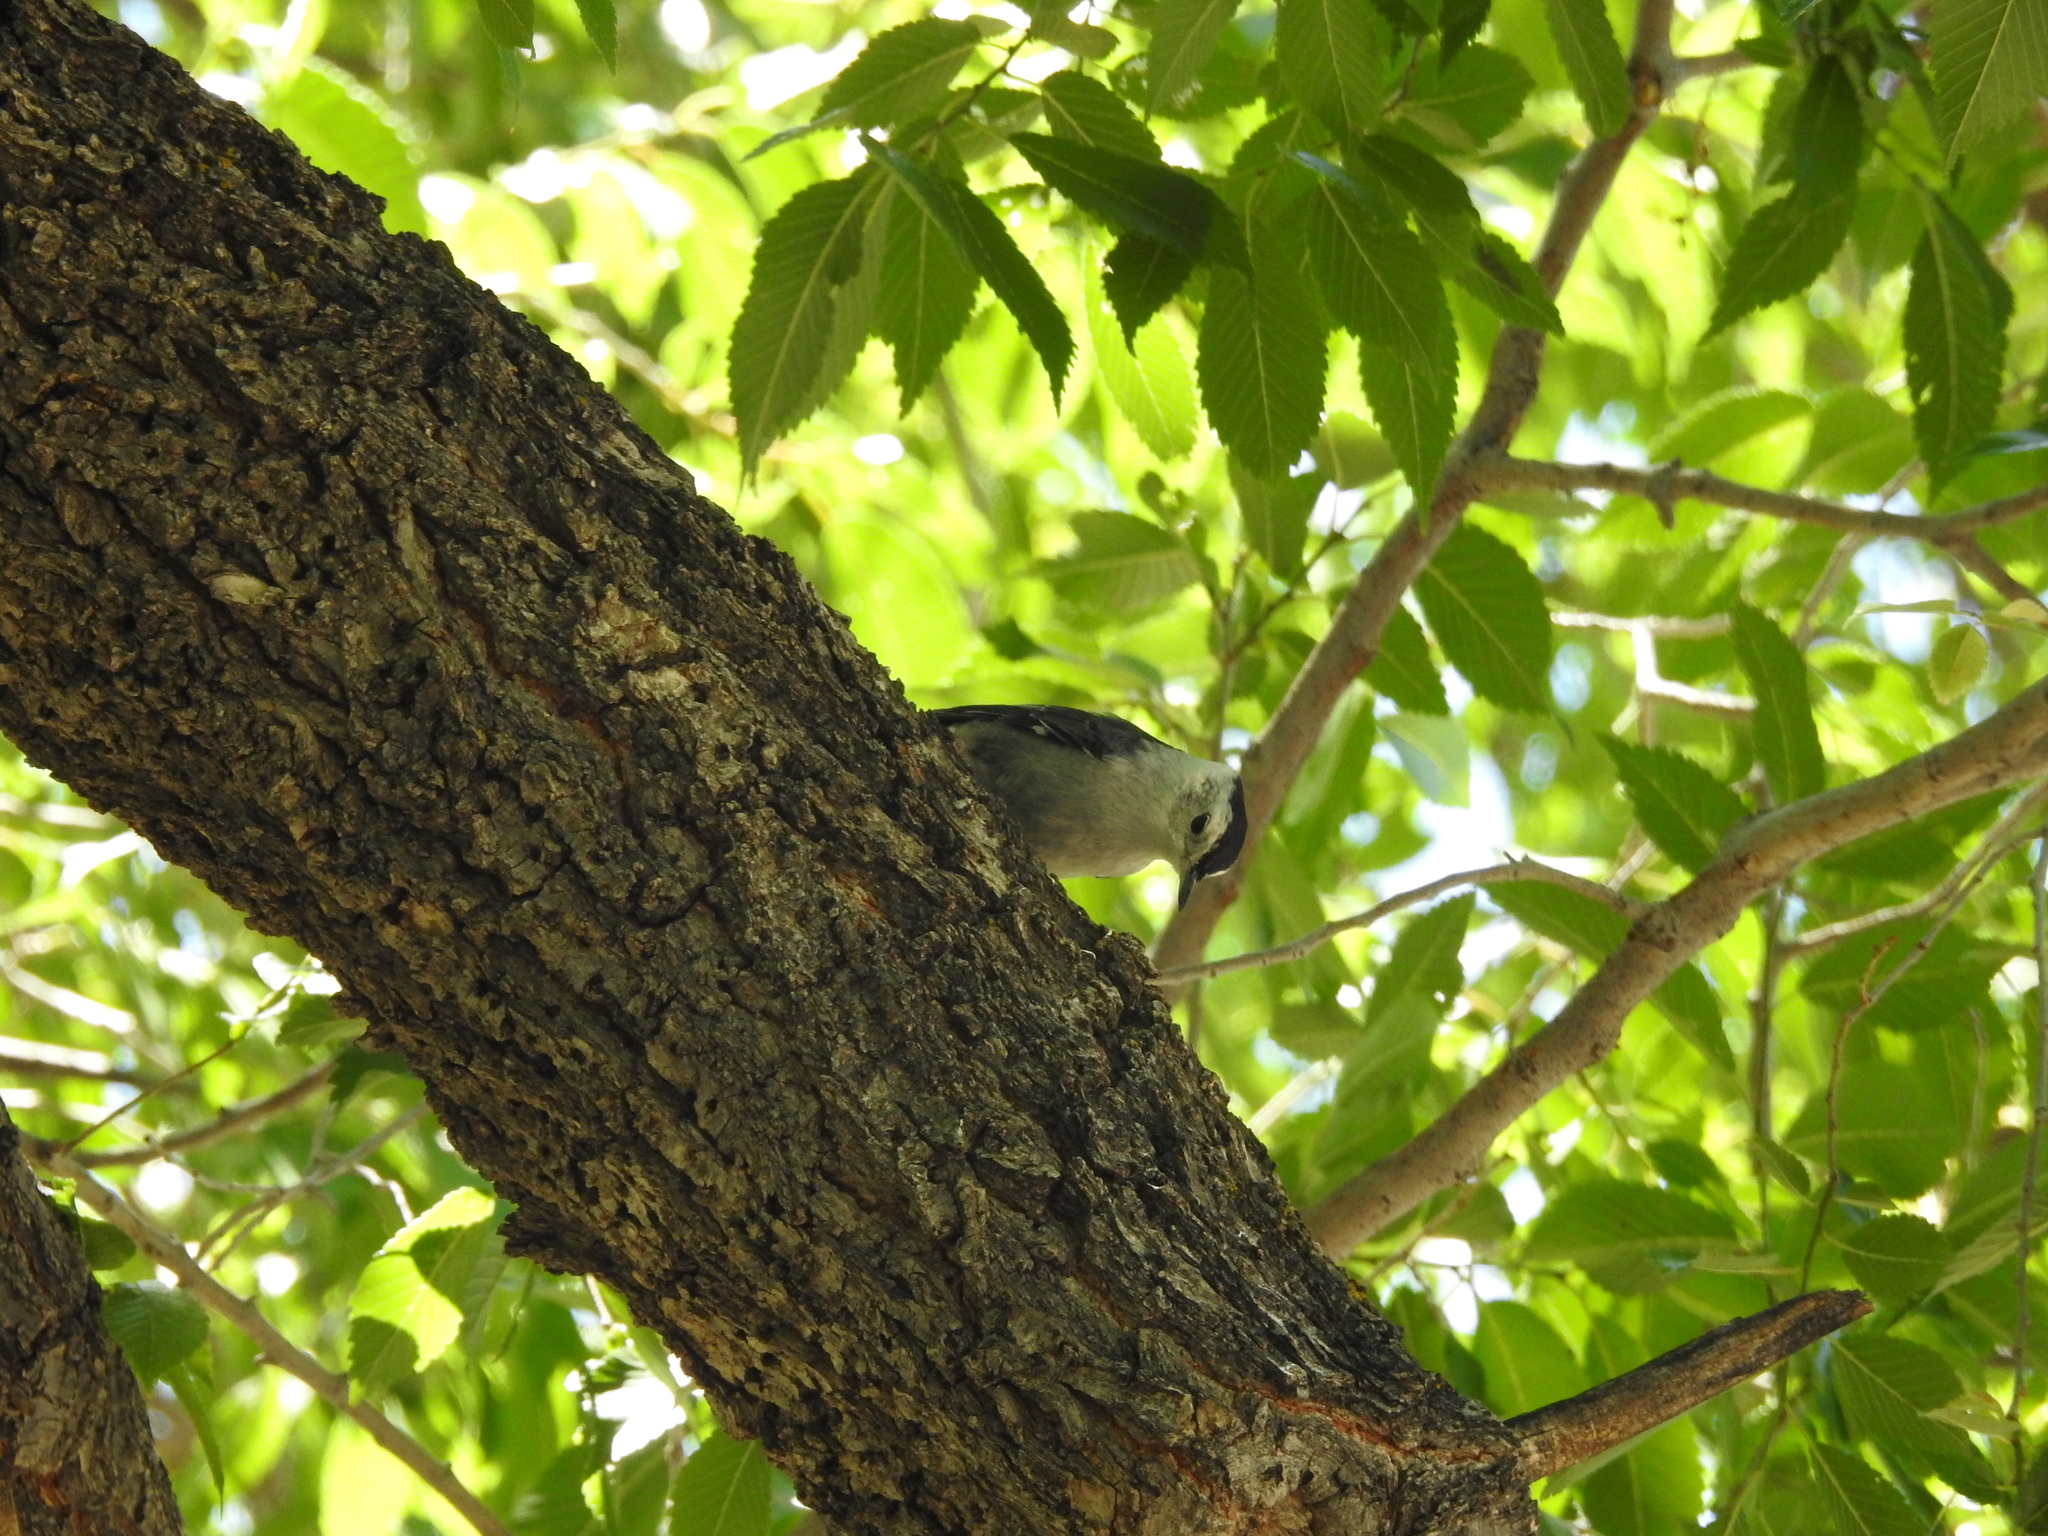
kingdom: Animalia
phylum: Chordata
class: Aves
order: Passeriformes
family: Sittidae
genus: Sitta
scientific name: Sitta carolinensis
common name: White-breasted nuthatch
